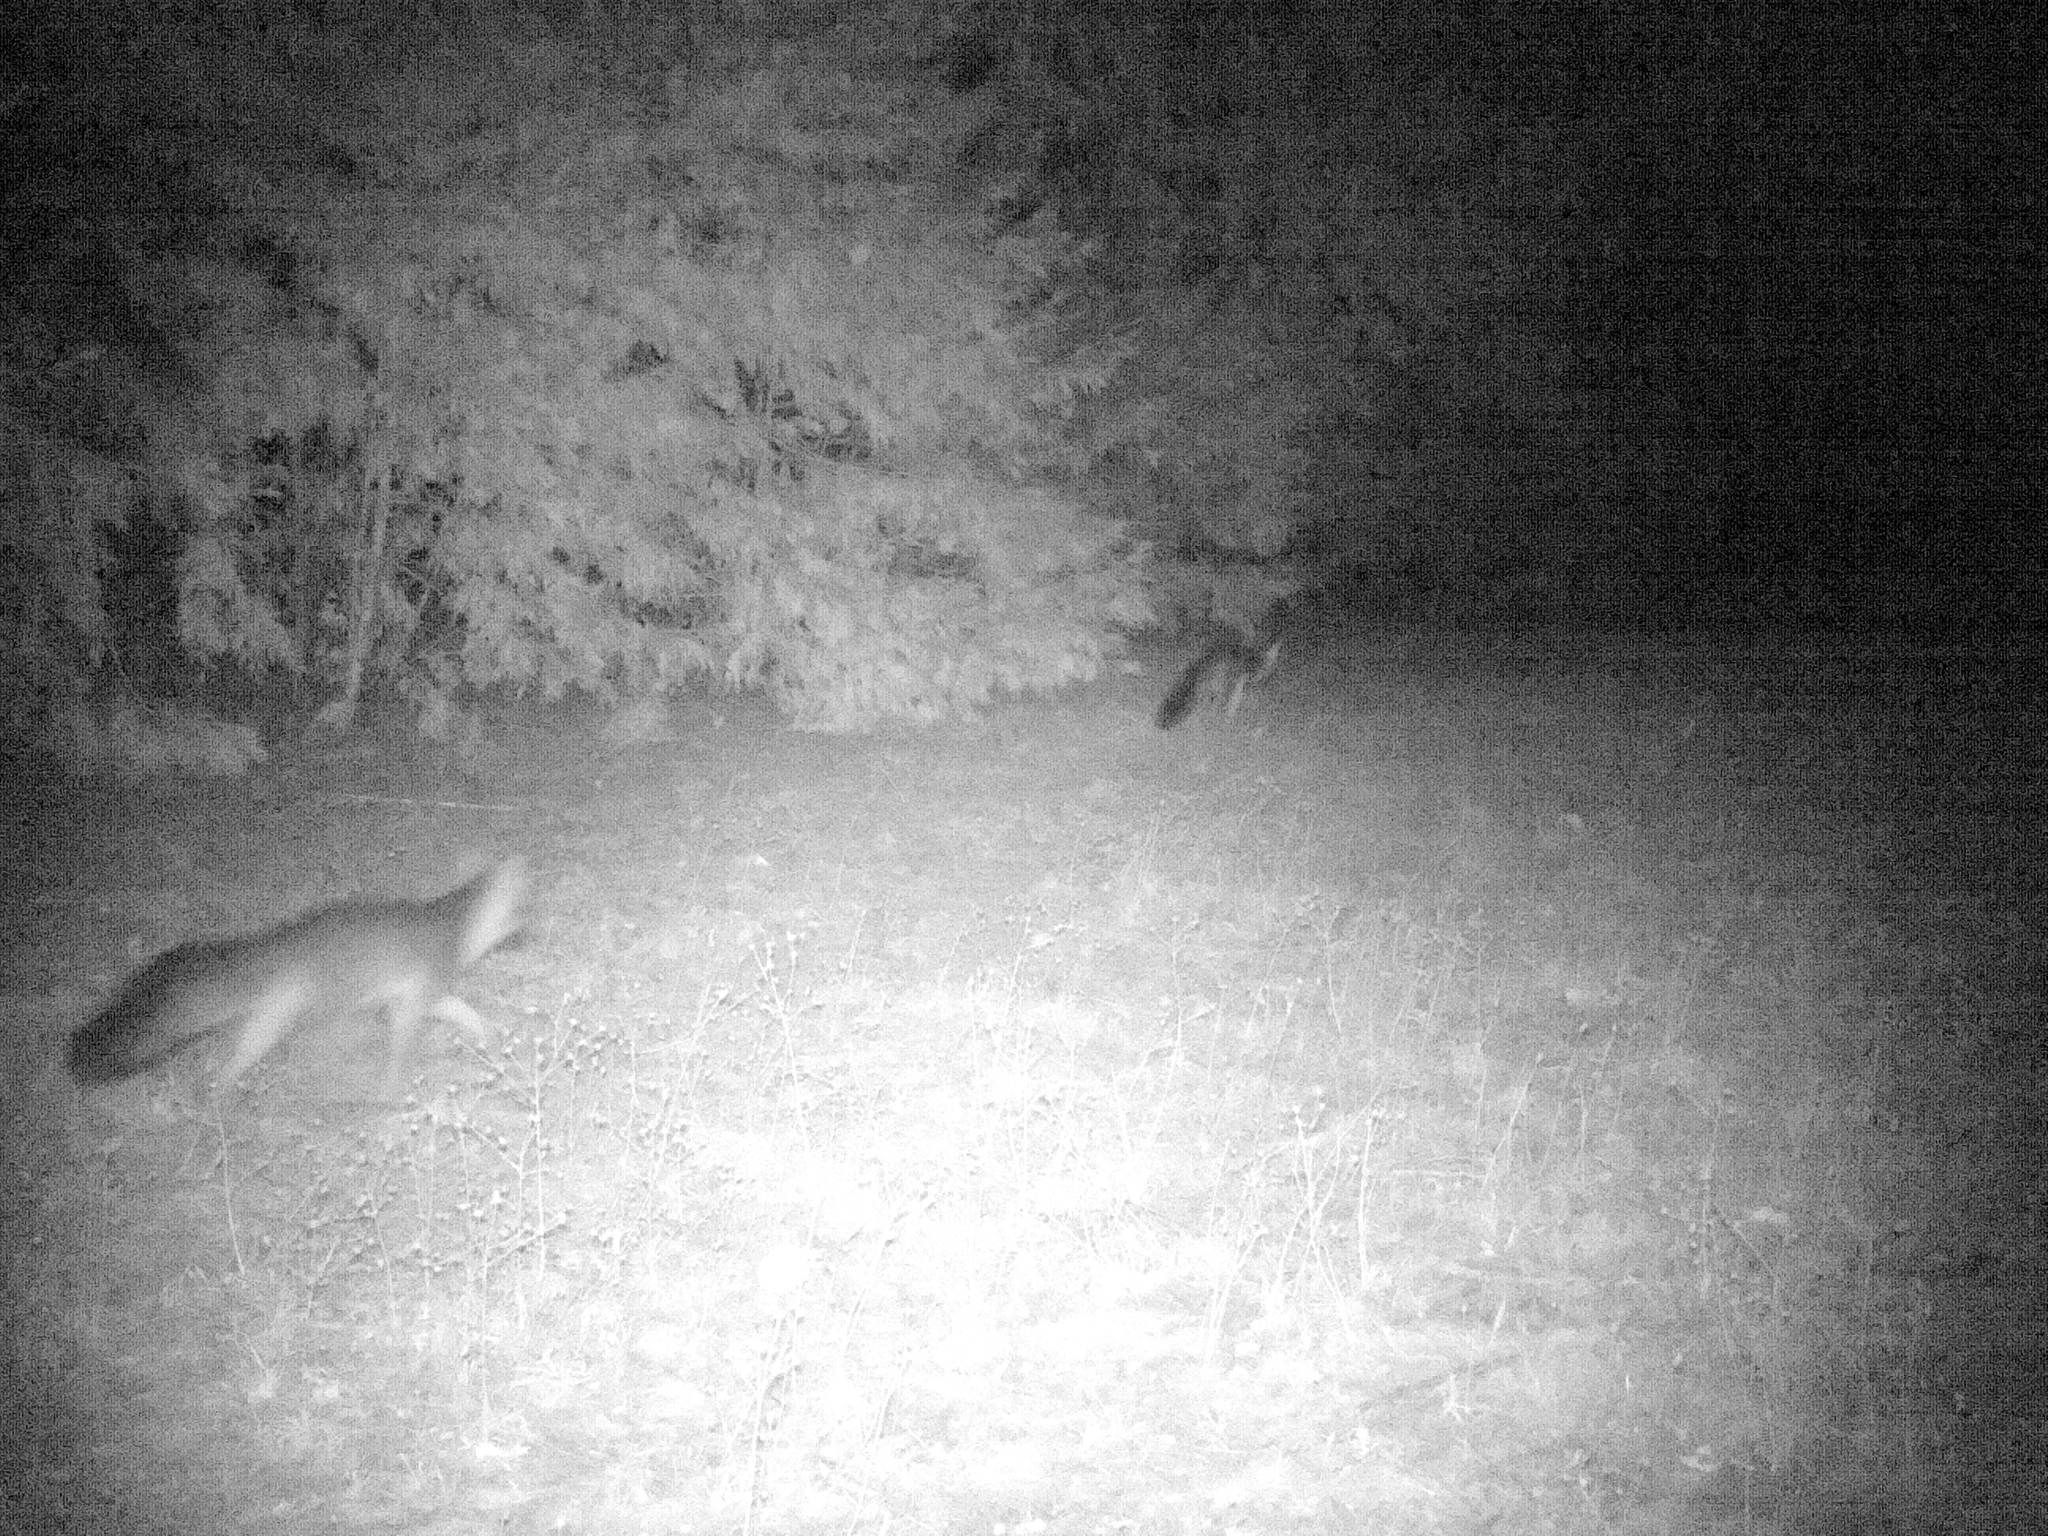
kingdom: Animalia
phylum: Chordata
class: Mammalia
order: Carnivora
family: Canidae
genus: Urocyon
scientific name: Urocyon cinereoargenteus
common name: Gray fox
